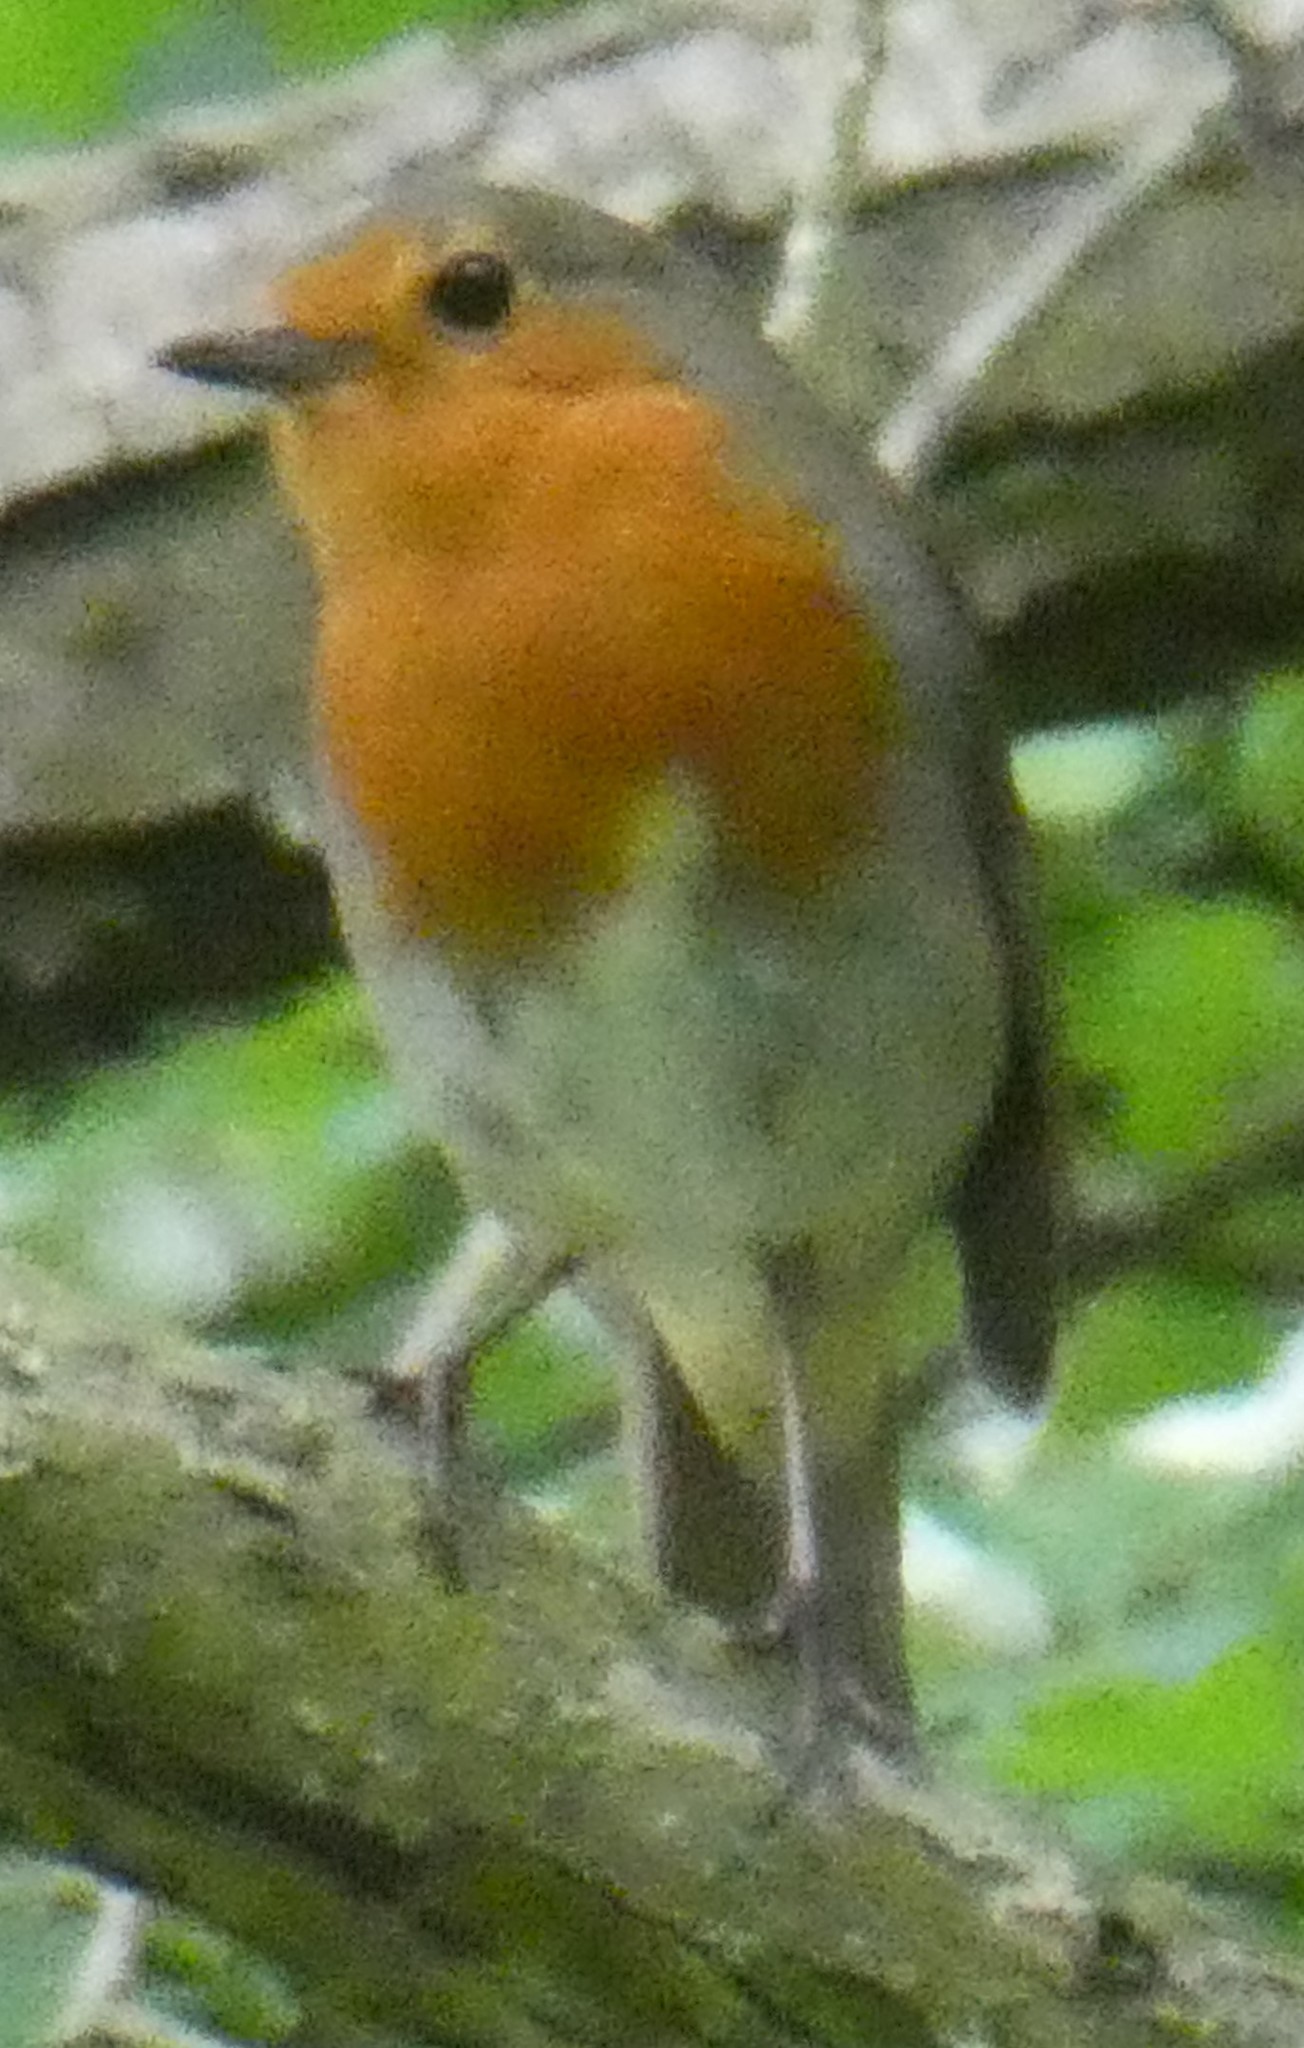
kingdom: Animalia
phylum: Chordata
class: Aves
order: Passeriformes
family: Muscicapidae
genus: Erithacus
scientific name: Erithacus rubecula
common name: European robin
